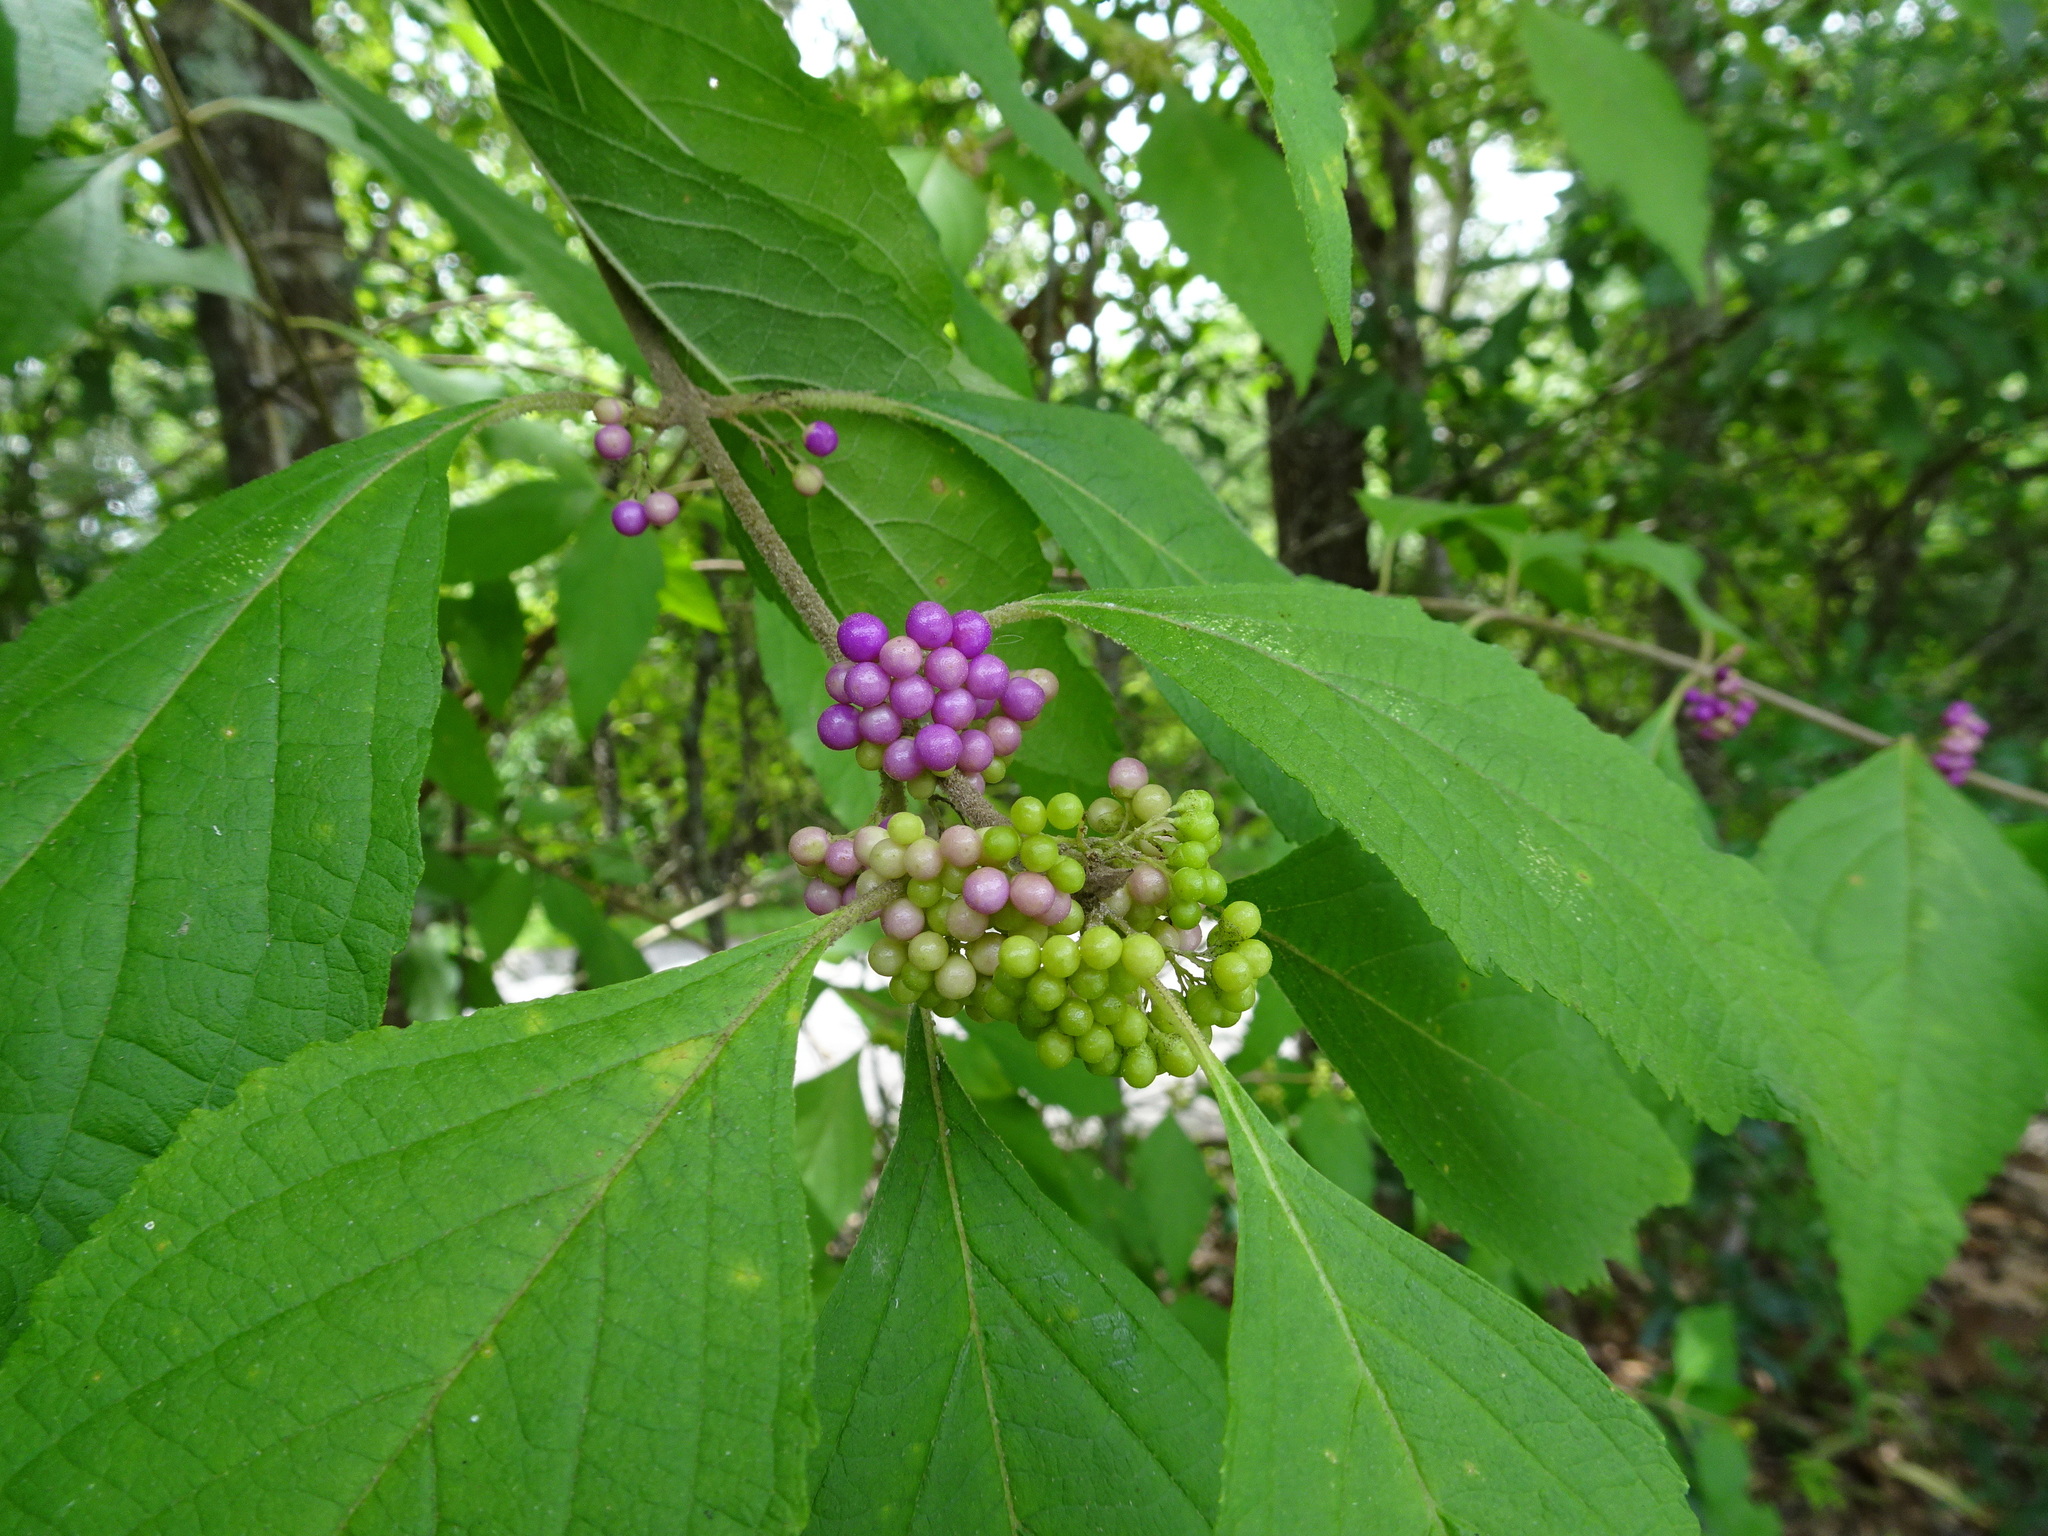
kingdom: Plantae
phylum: Tracheophyta
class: Magnoliopsida
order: Lamiales
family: Lamiaceae
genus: Callicarpa
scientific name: Callicarpa americana
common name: American beautyberry
